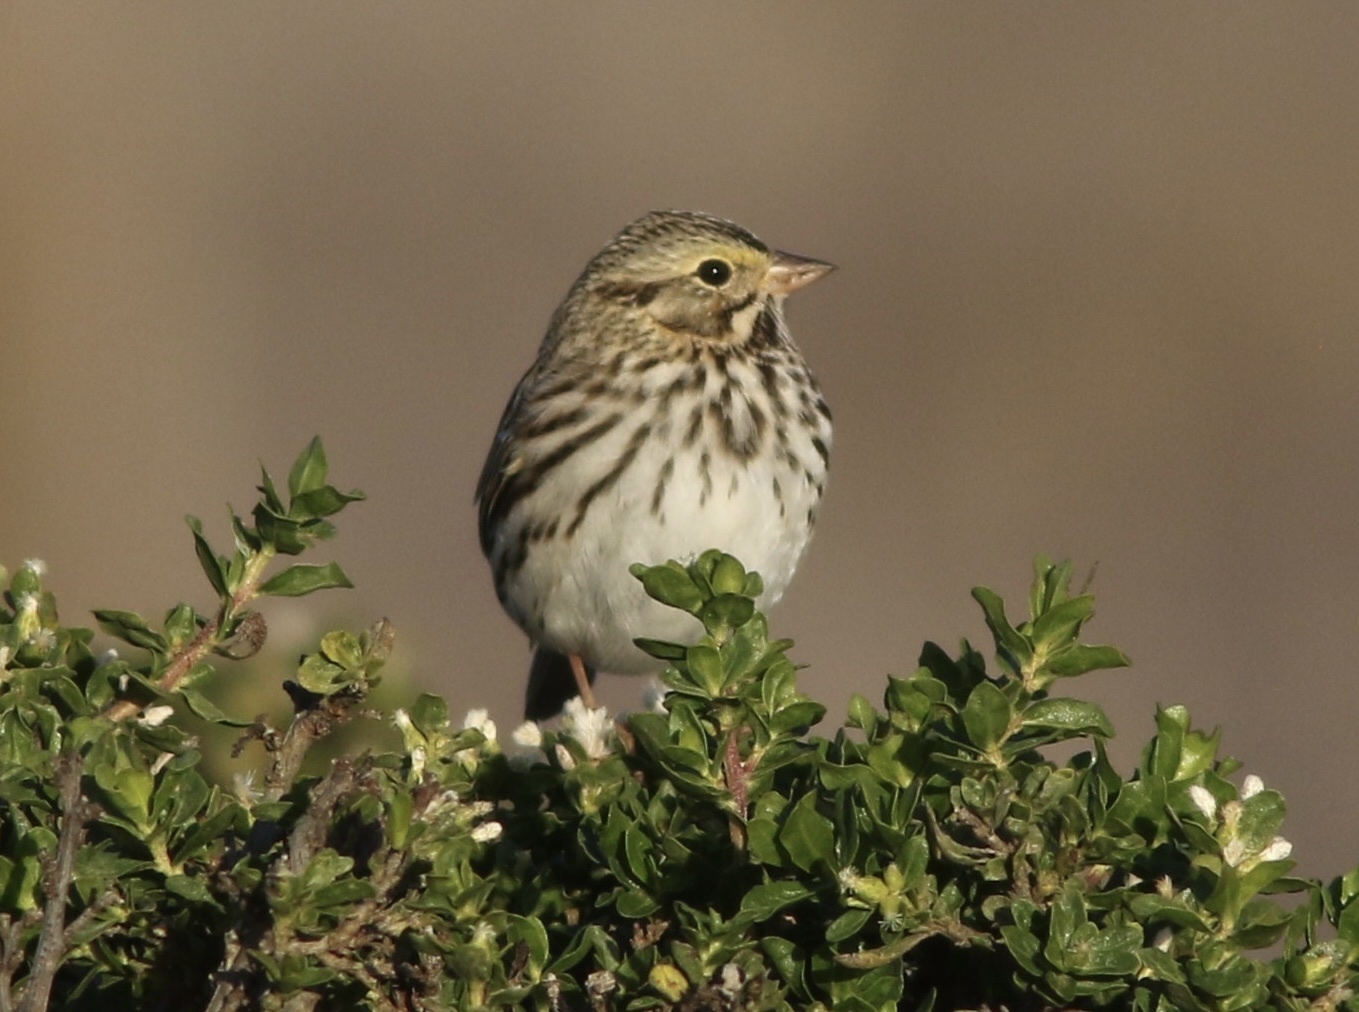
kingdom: Animalia
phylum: Chordata
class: Aves
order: Passeriformes
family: Passerellidae
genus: Passerculus
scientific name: Passerculus sandwichensis
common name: Savannah sparrow
